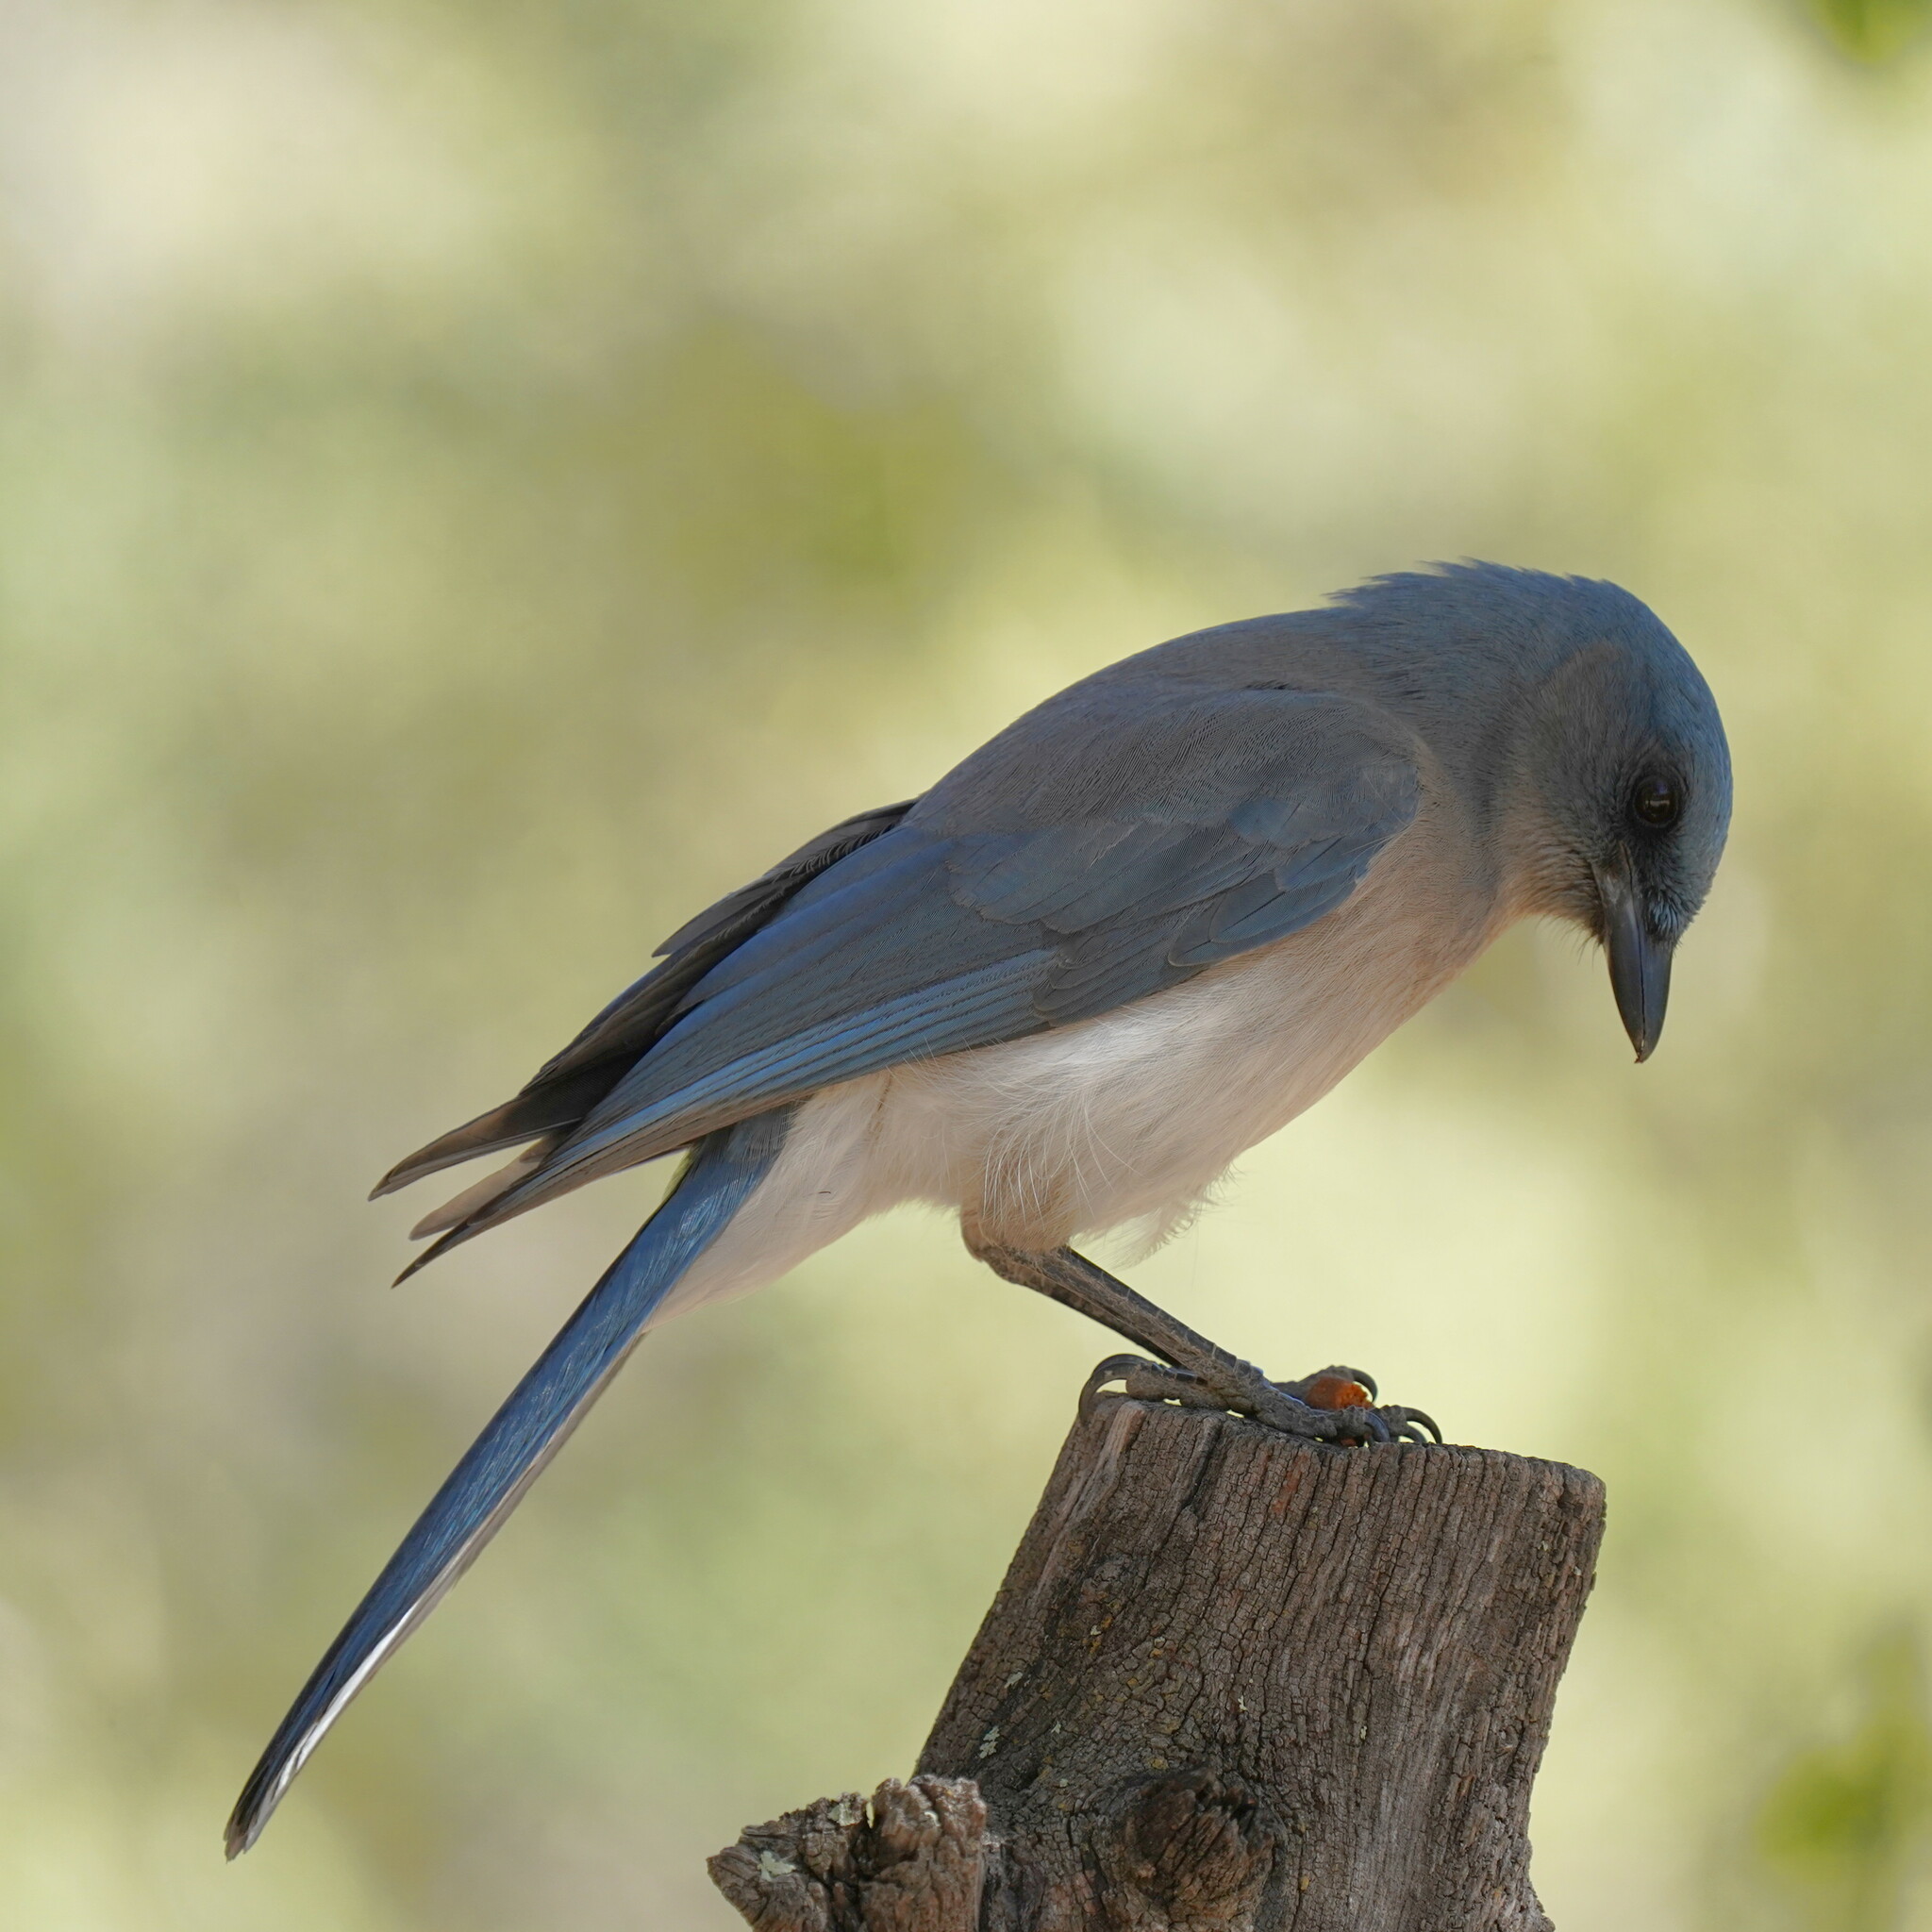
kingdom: Animalia
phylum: Chordata
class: Aves
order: Passeriformes
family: Corvidae
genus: Aphelocoma
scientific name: Aphelocoma wollweberi
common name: Mexican jay
